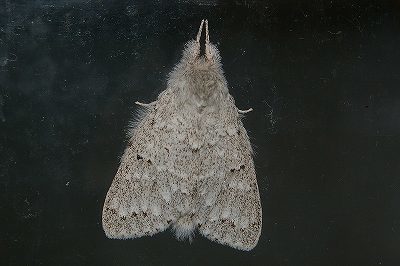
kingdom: Animalia
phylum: Arthropoda
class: Insecta
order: Lepidoptera
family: Notodontidae
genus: Cnethodonta
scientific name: Cnethodonta grisescens
